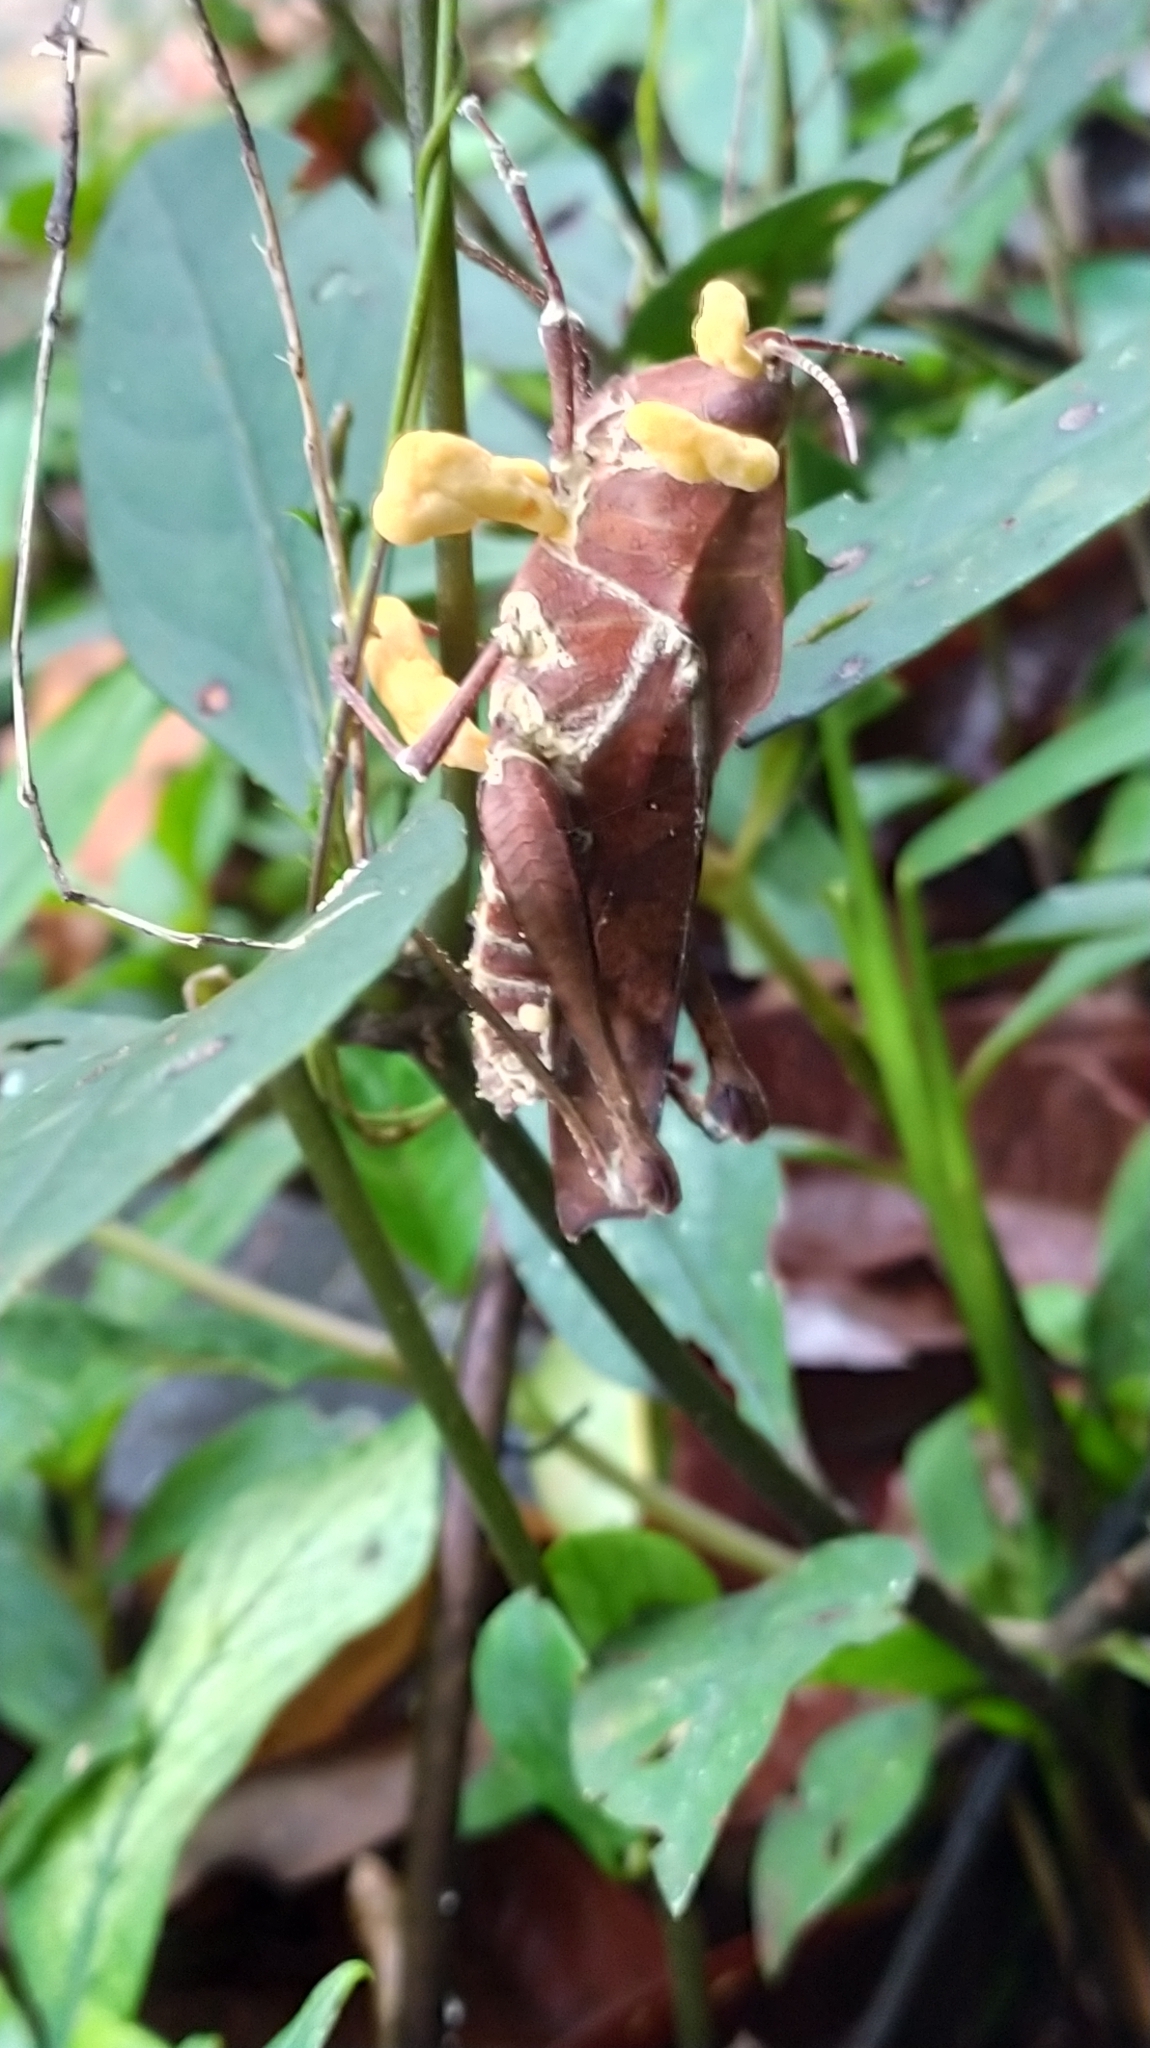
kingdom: Animalia
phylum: Arthropoda
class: Insecta
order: Orthoptera
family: Romaleidae
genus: Colpolopha
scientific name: Colpolopha obsoleta
